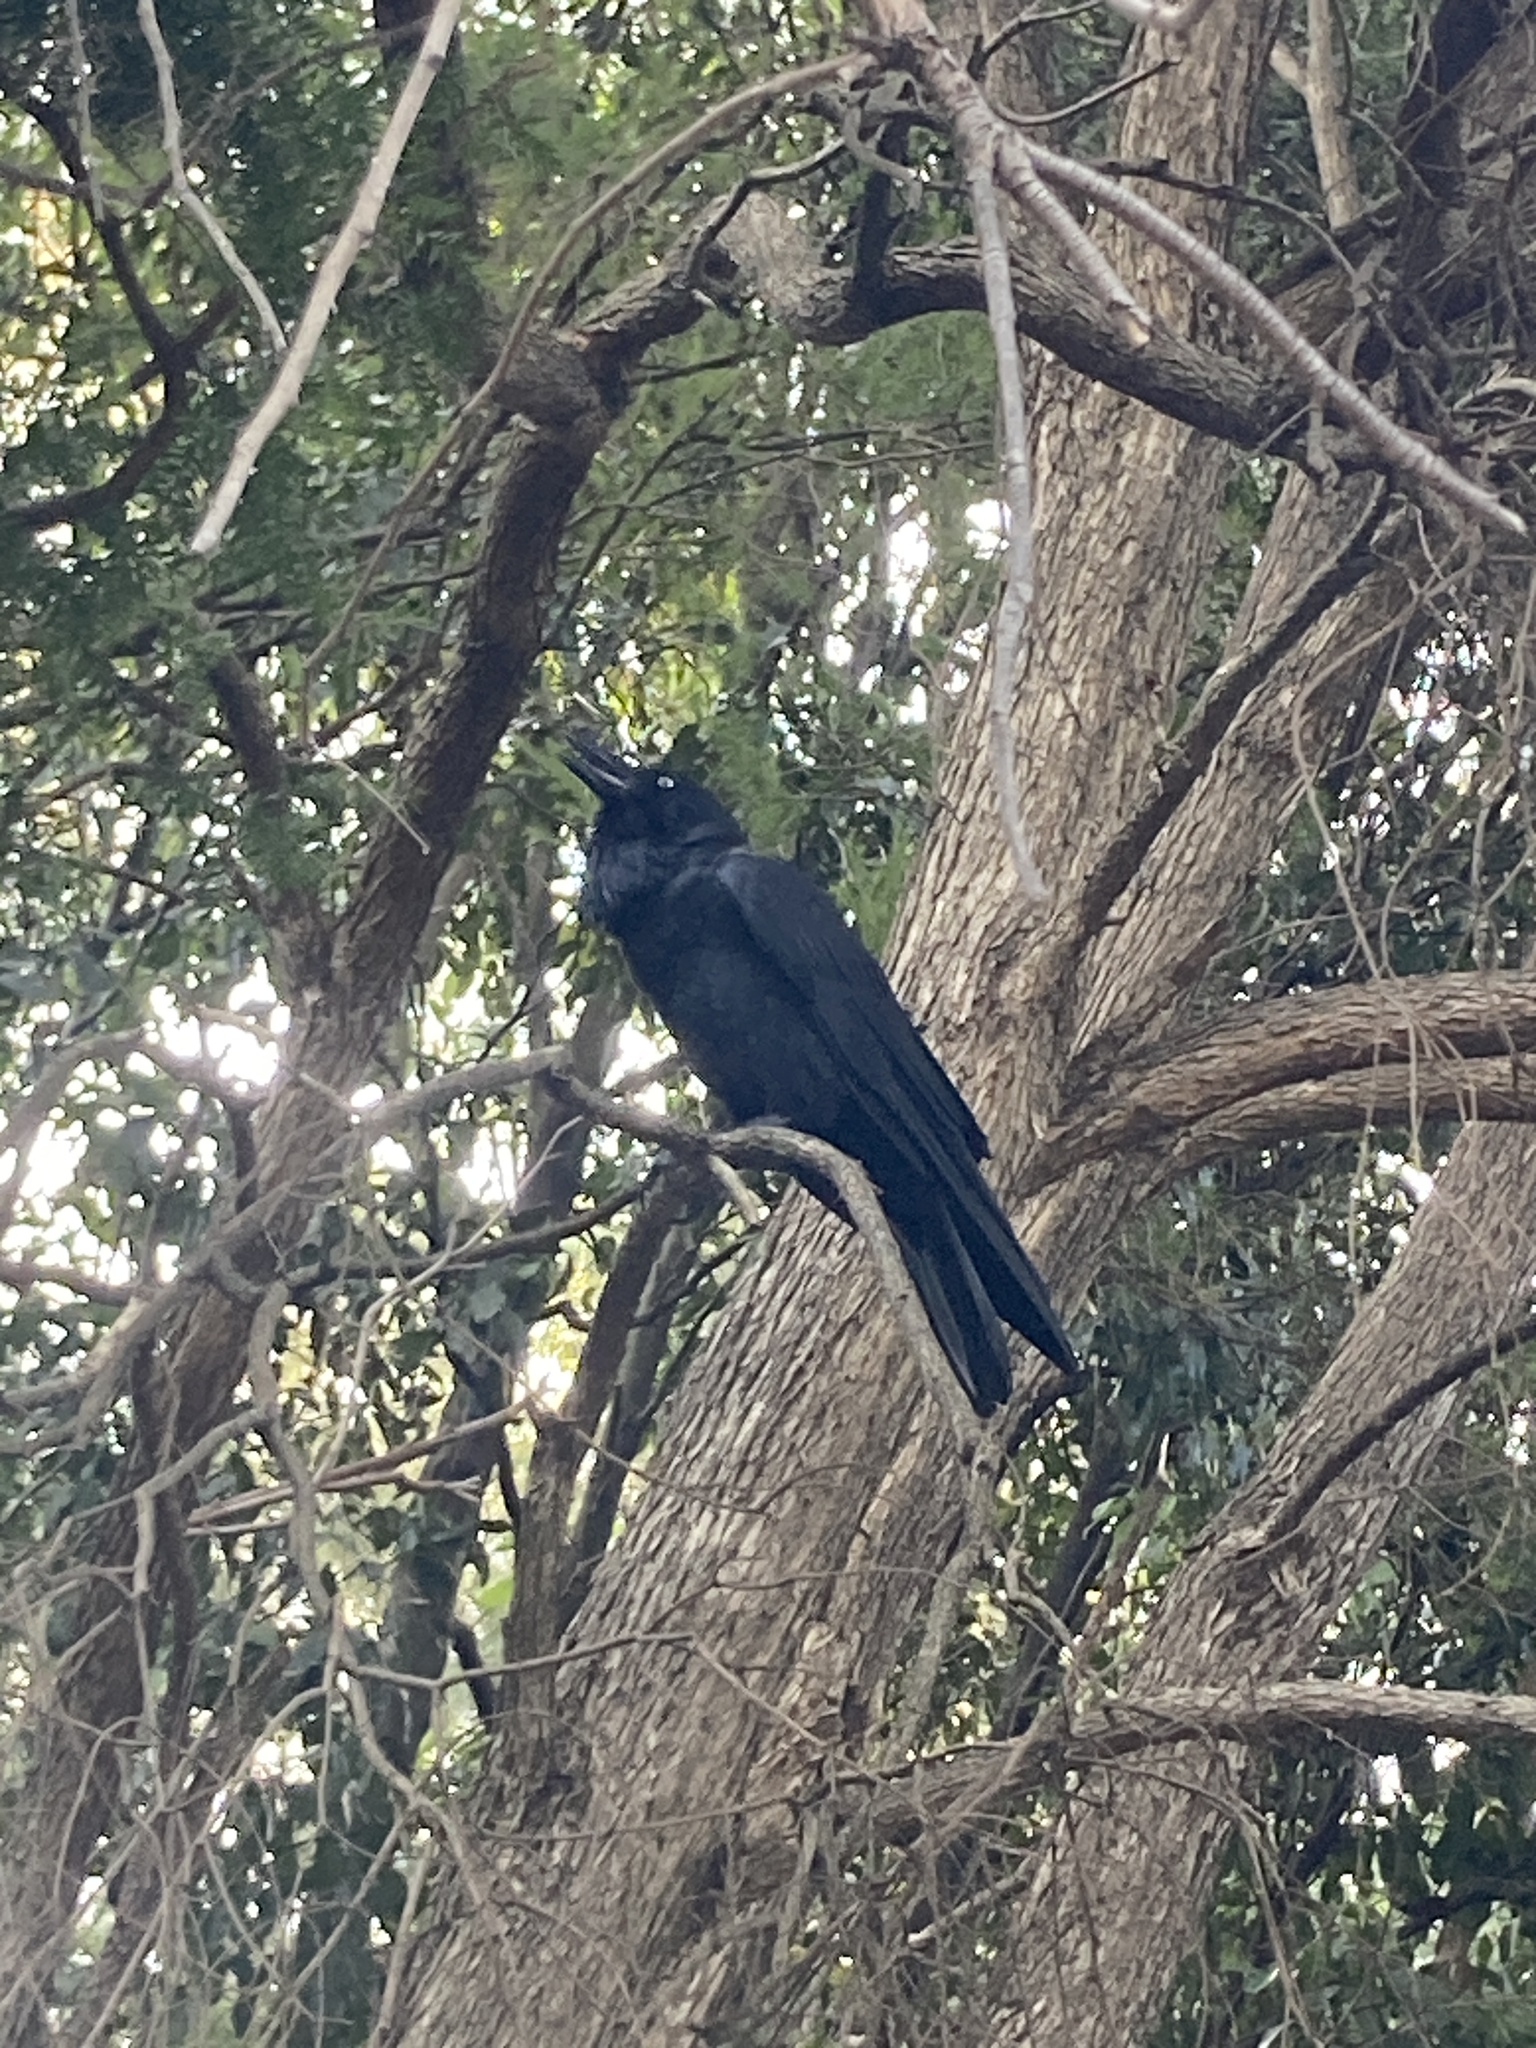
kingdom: Animalia
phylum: Chordata
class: Aves
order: Passeriformes
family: Corvidae
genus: Corvus
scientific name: Corvus coronoides
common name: Australian raven
